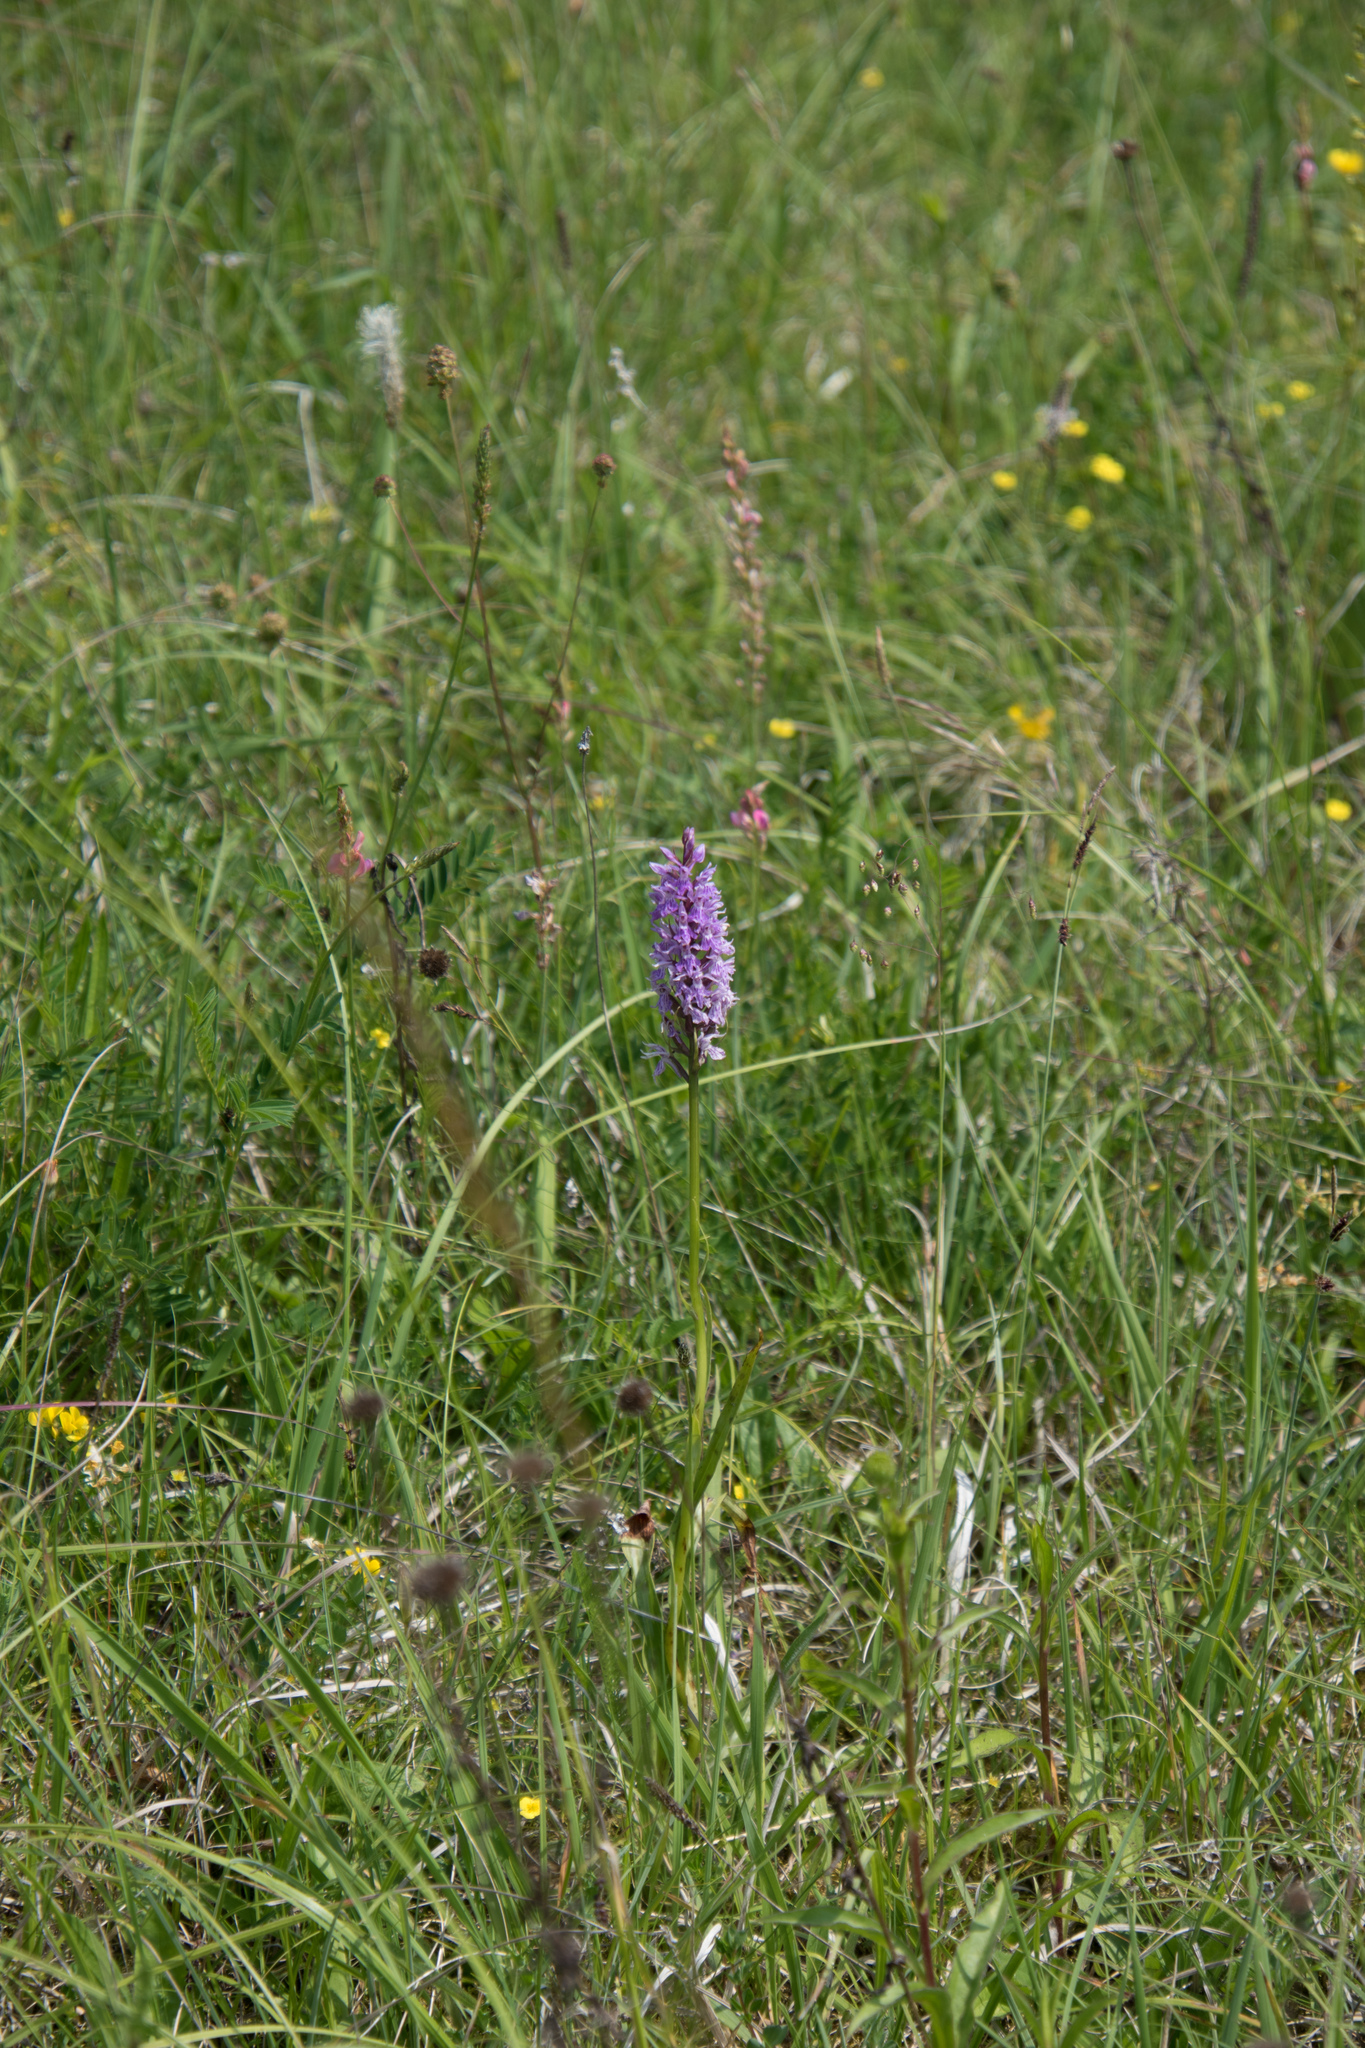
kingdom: Plantae
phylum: Tracheophyta
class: Liliopsida
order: Asparagales
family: Orchidaceae
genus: Dactylorhiza
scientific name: Dactylorhiza maculata
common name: Heath spotted-orchid
